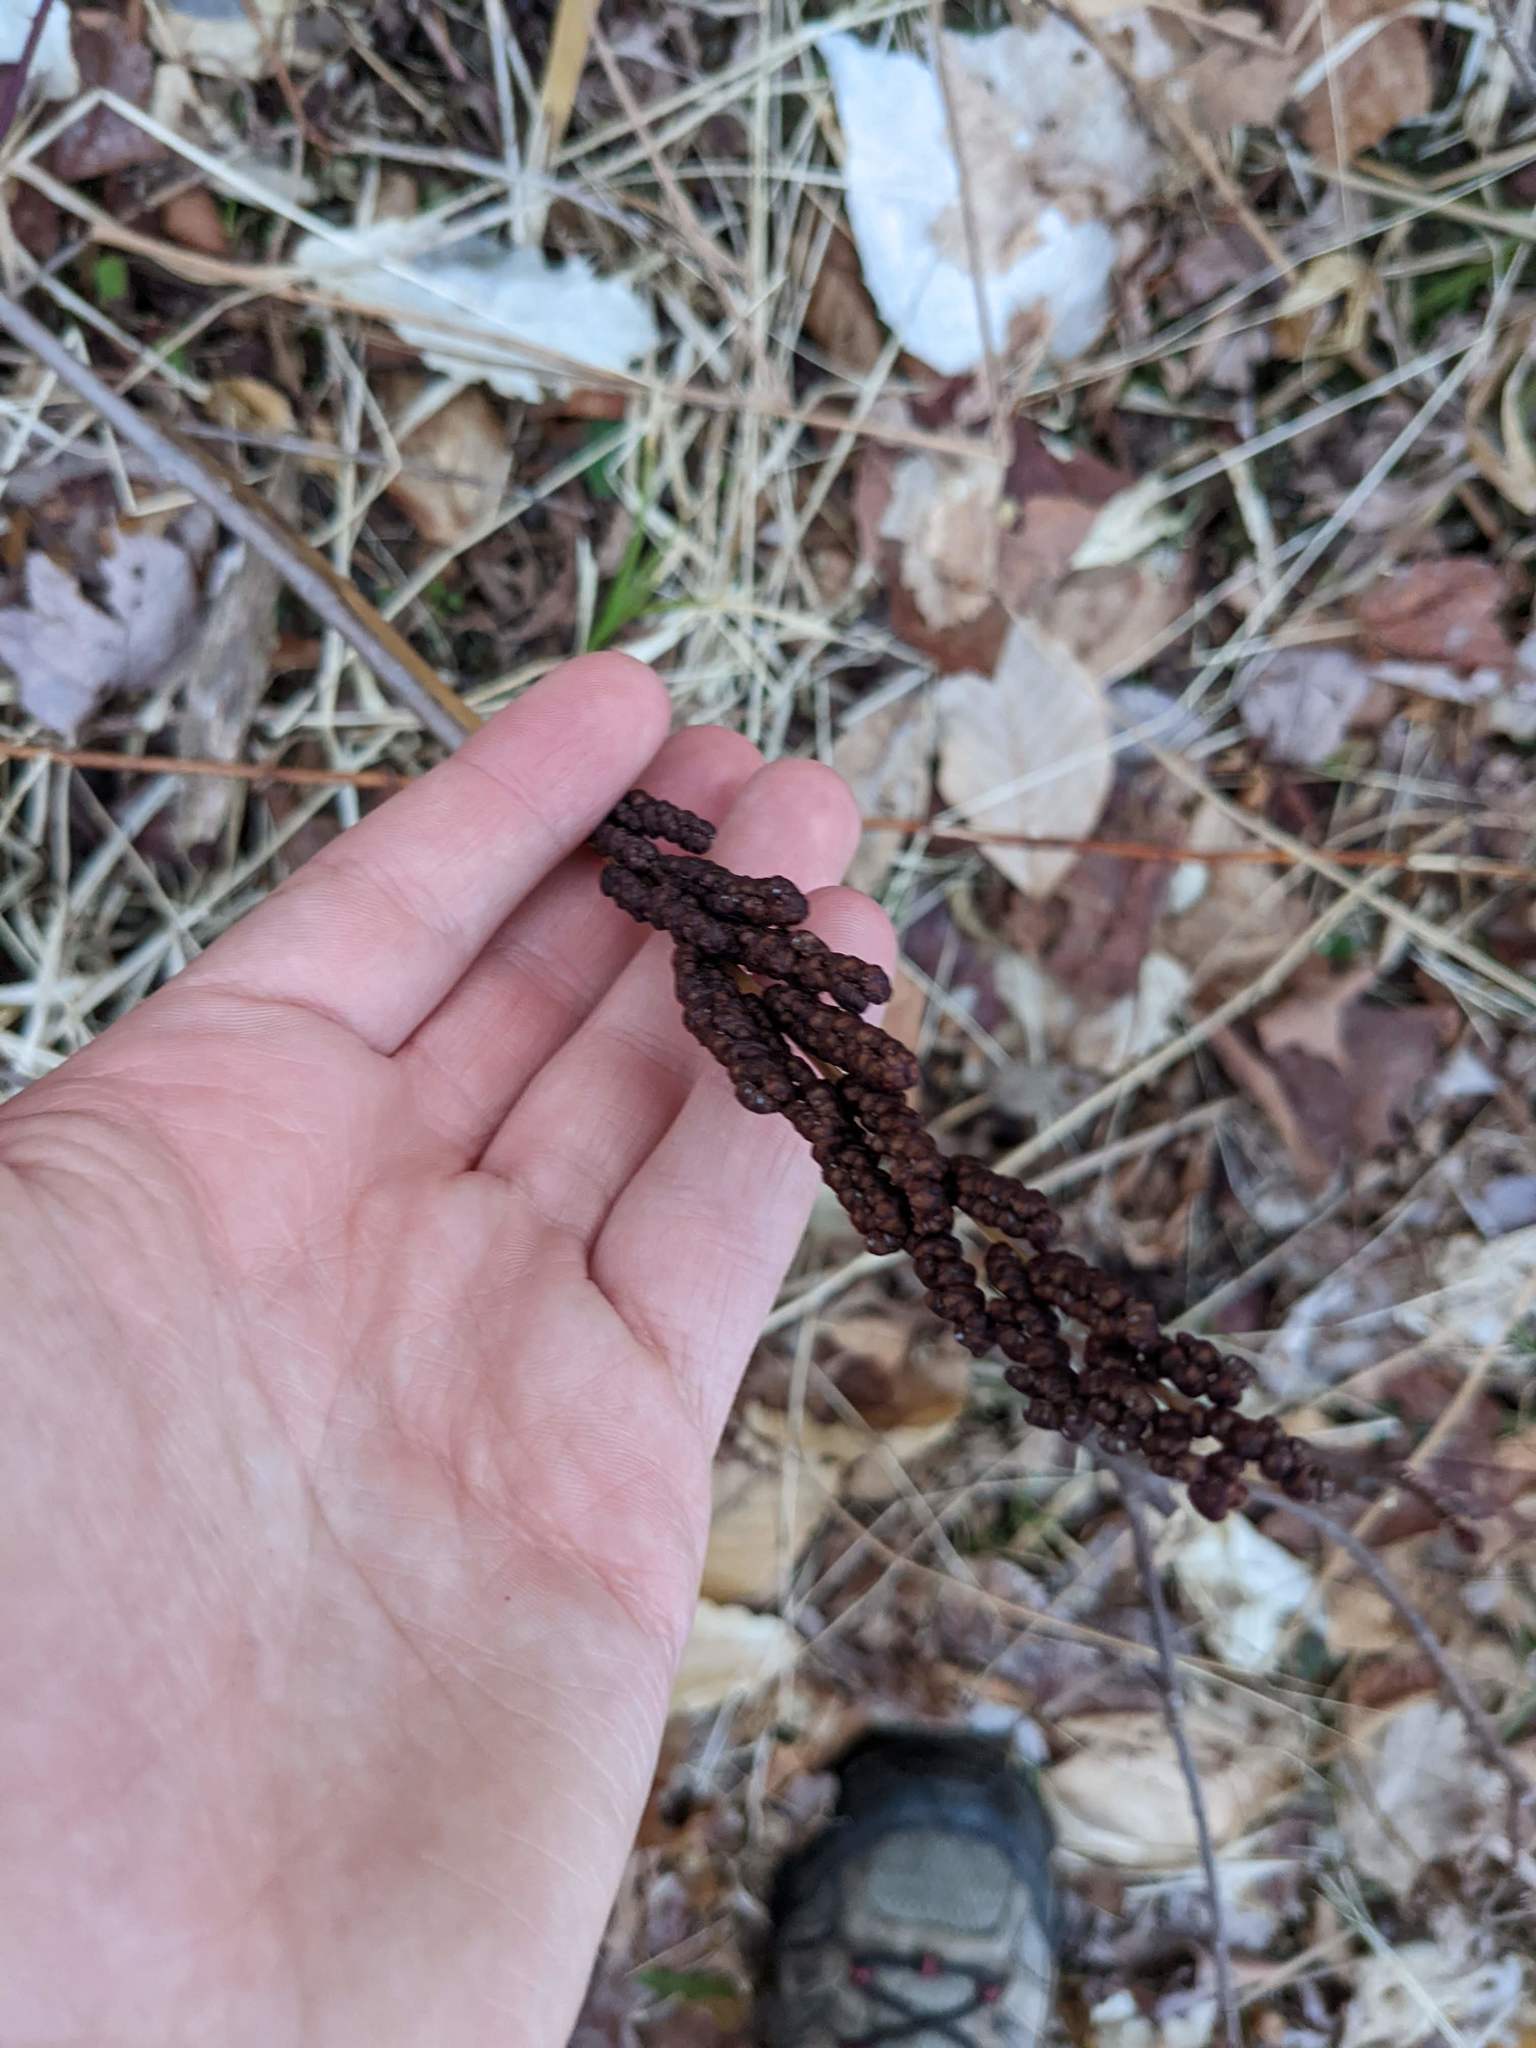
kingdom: Plantae
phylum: Tracheophyta
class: Polypodiopsida
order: Polypodiales
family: Onocleaceae
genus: Onoclea
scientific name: Onoclea sensibilis
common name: Sensitive fern
